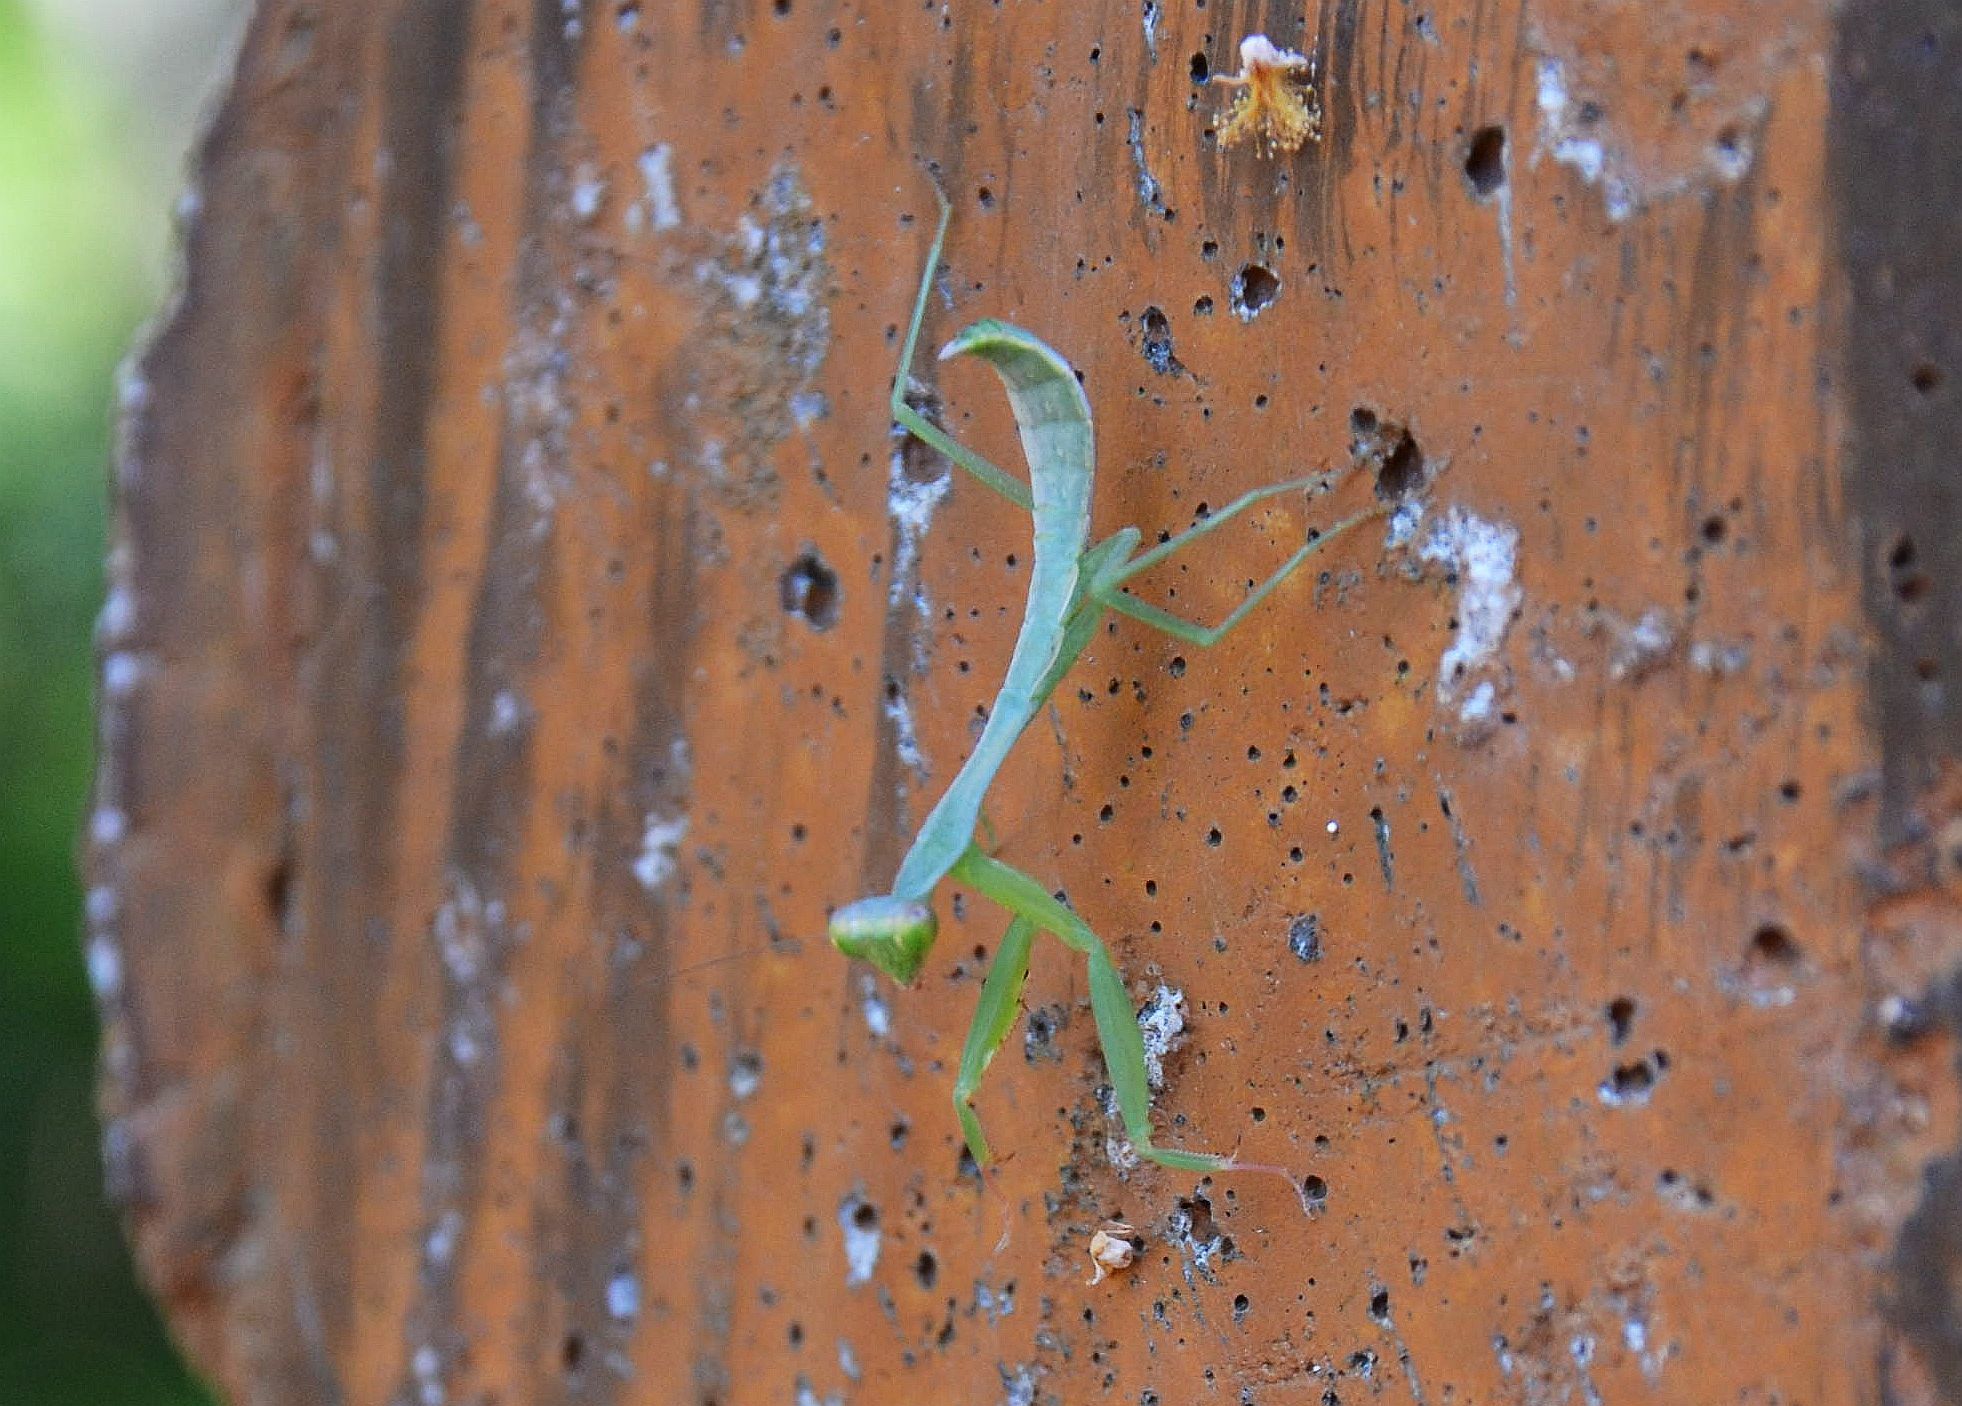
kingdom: Animalia
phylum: Arthropoda
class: Insecta
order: Mantodea
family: Mantidae
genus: Titanodula
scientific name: Titanodula formosana
